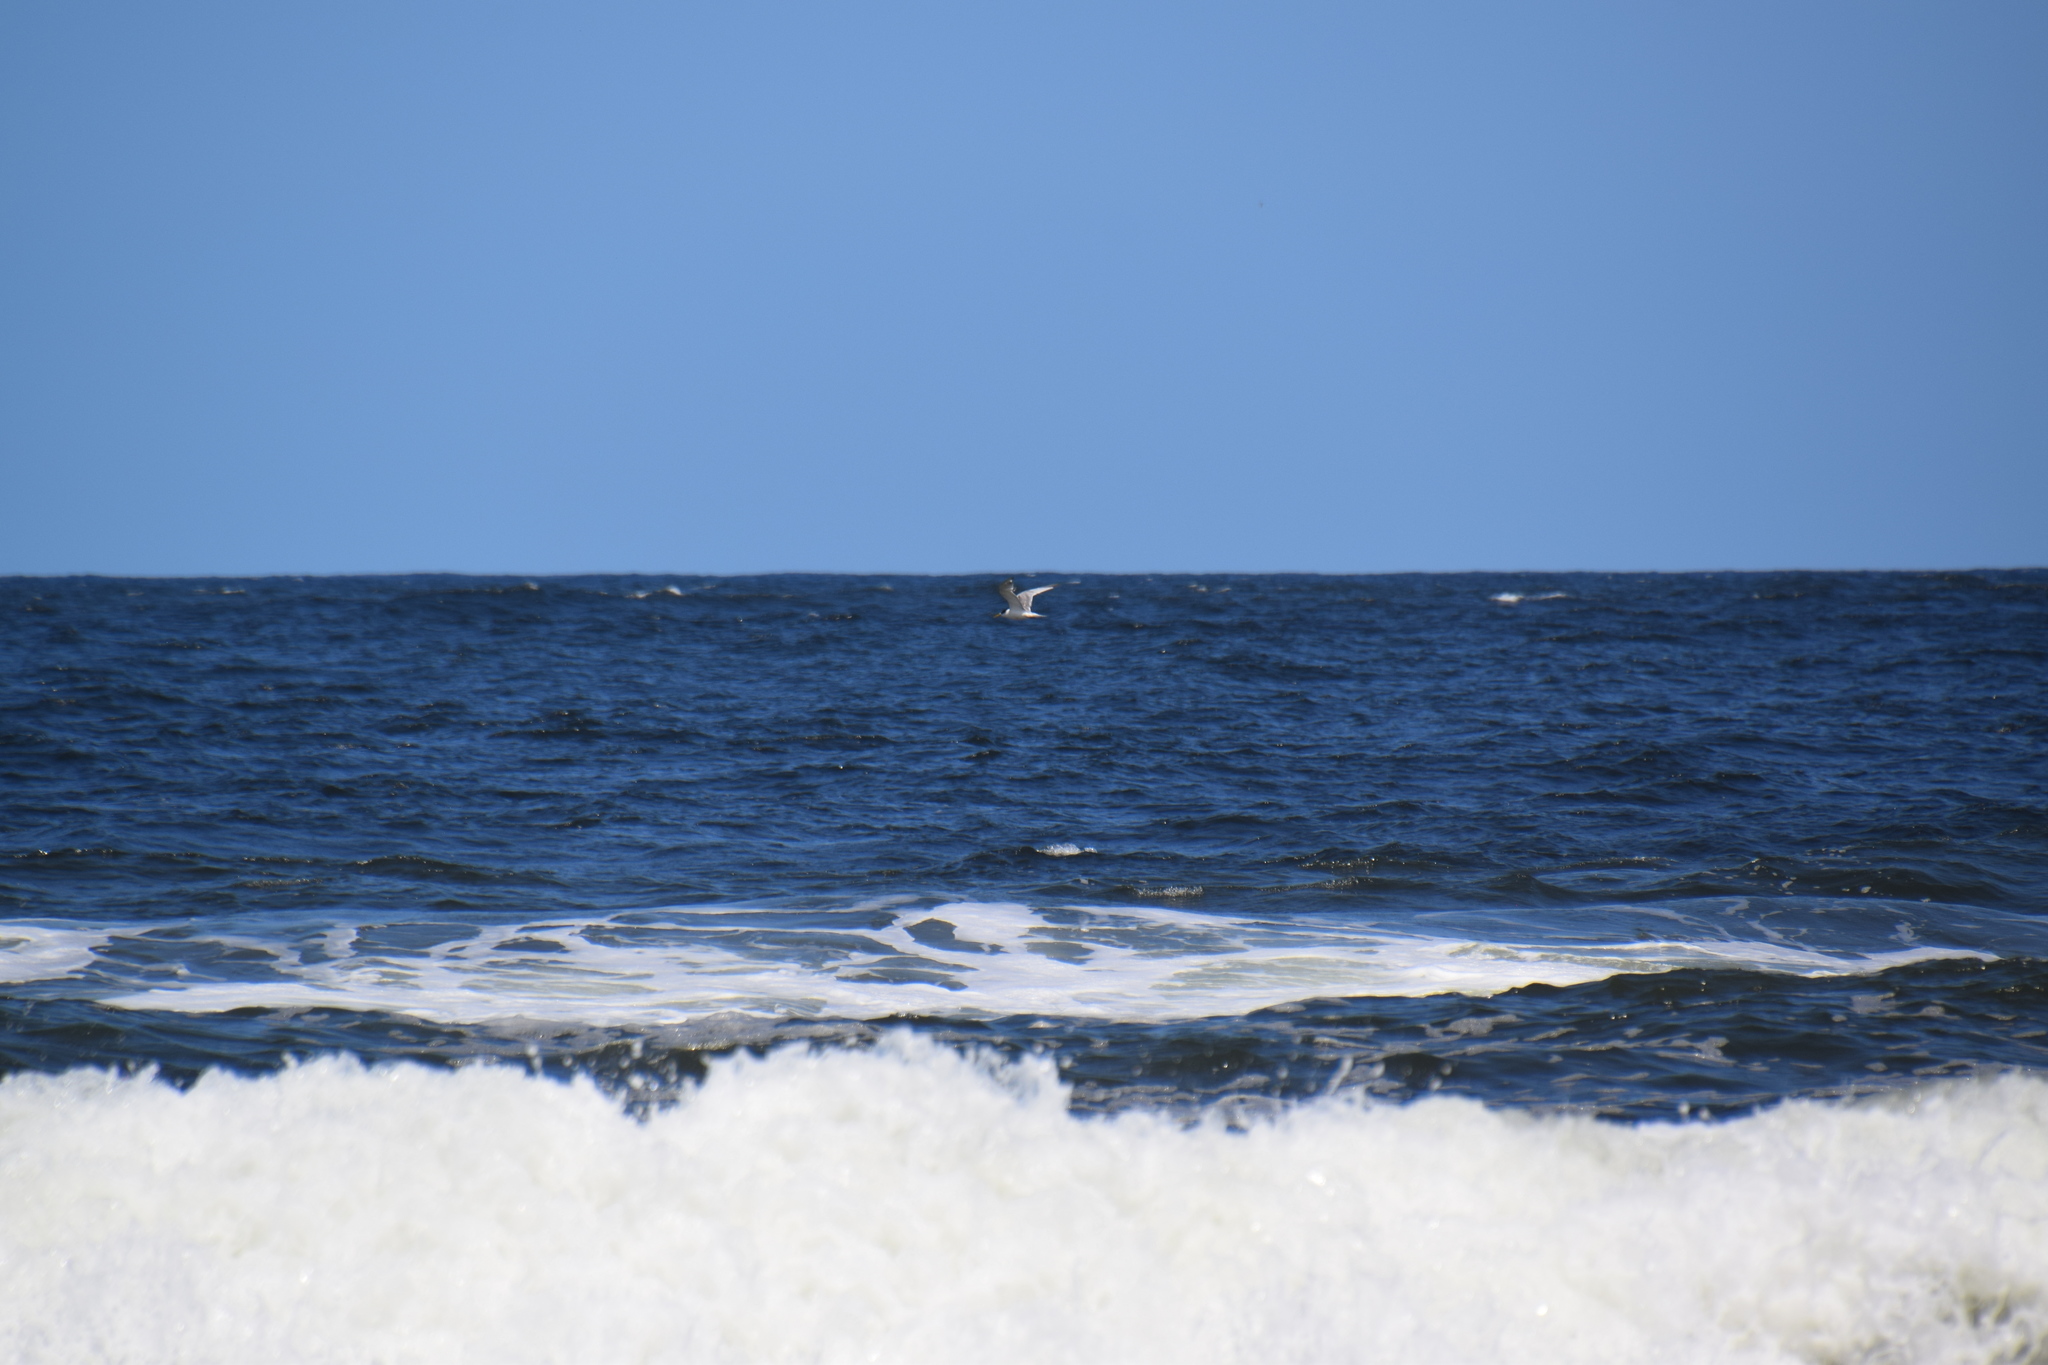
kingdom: Animalia
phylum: Chordata
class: Aves
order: Charadriiformes
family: Laridae
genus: Thalasseus
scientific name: Thalasseus bergii
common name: Greater crested tern
